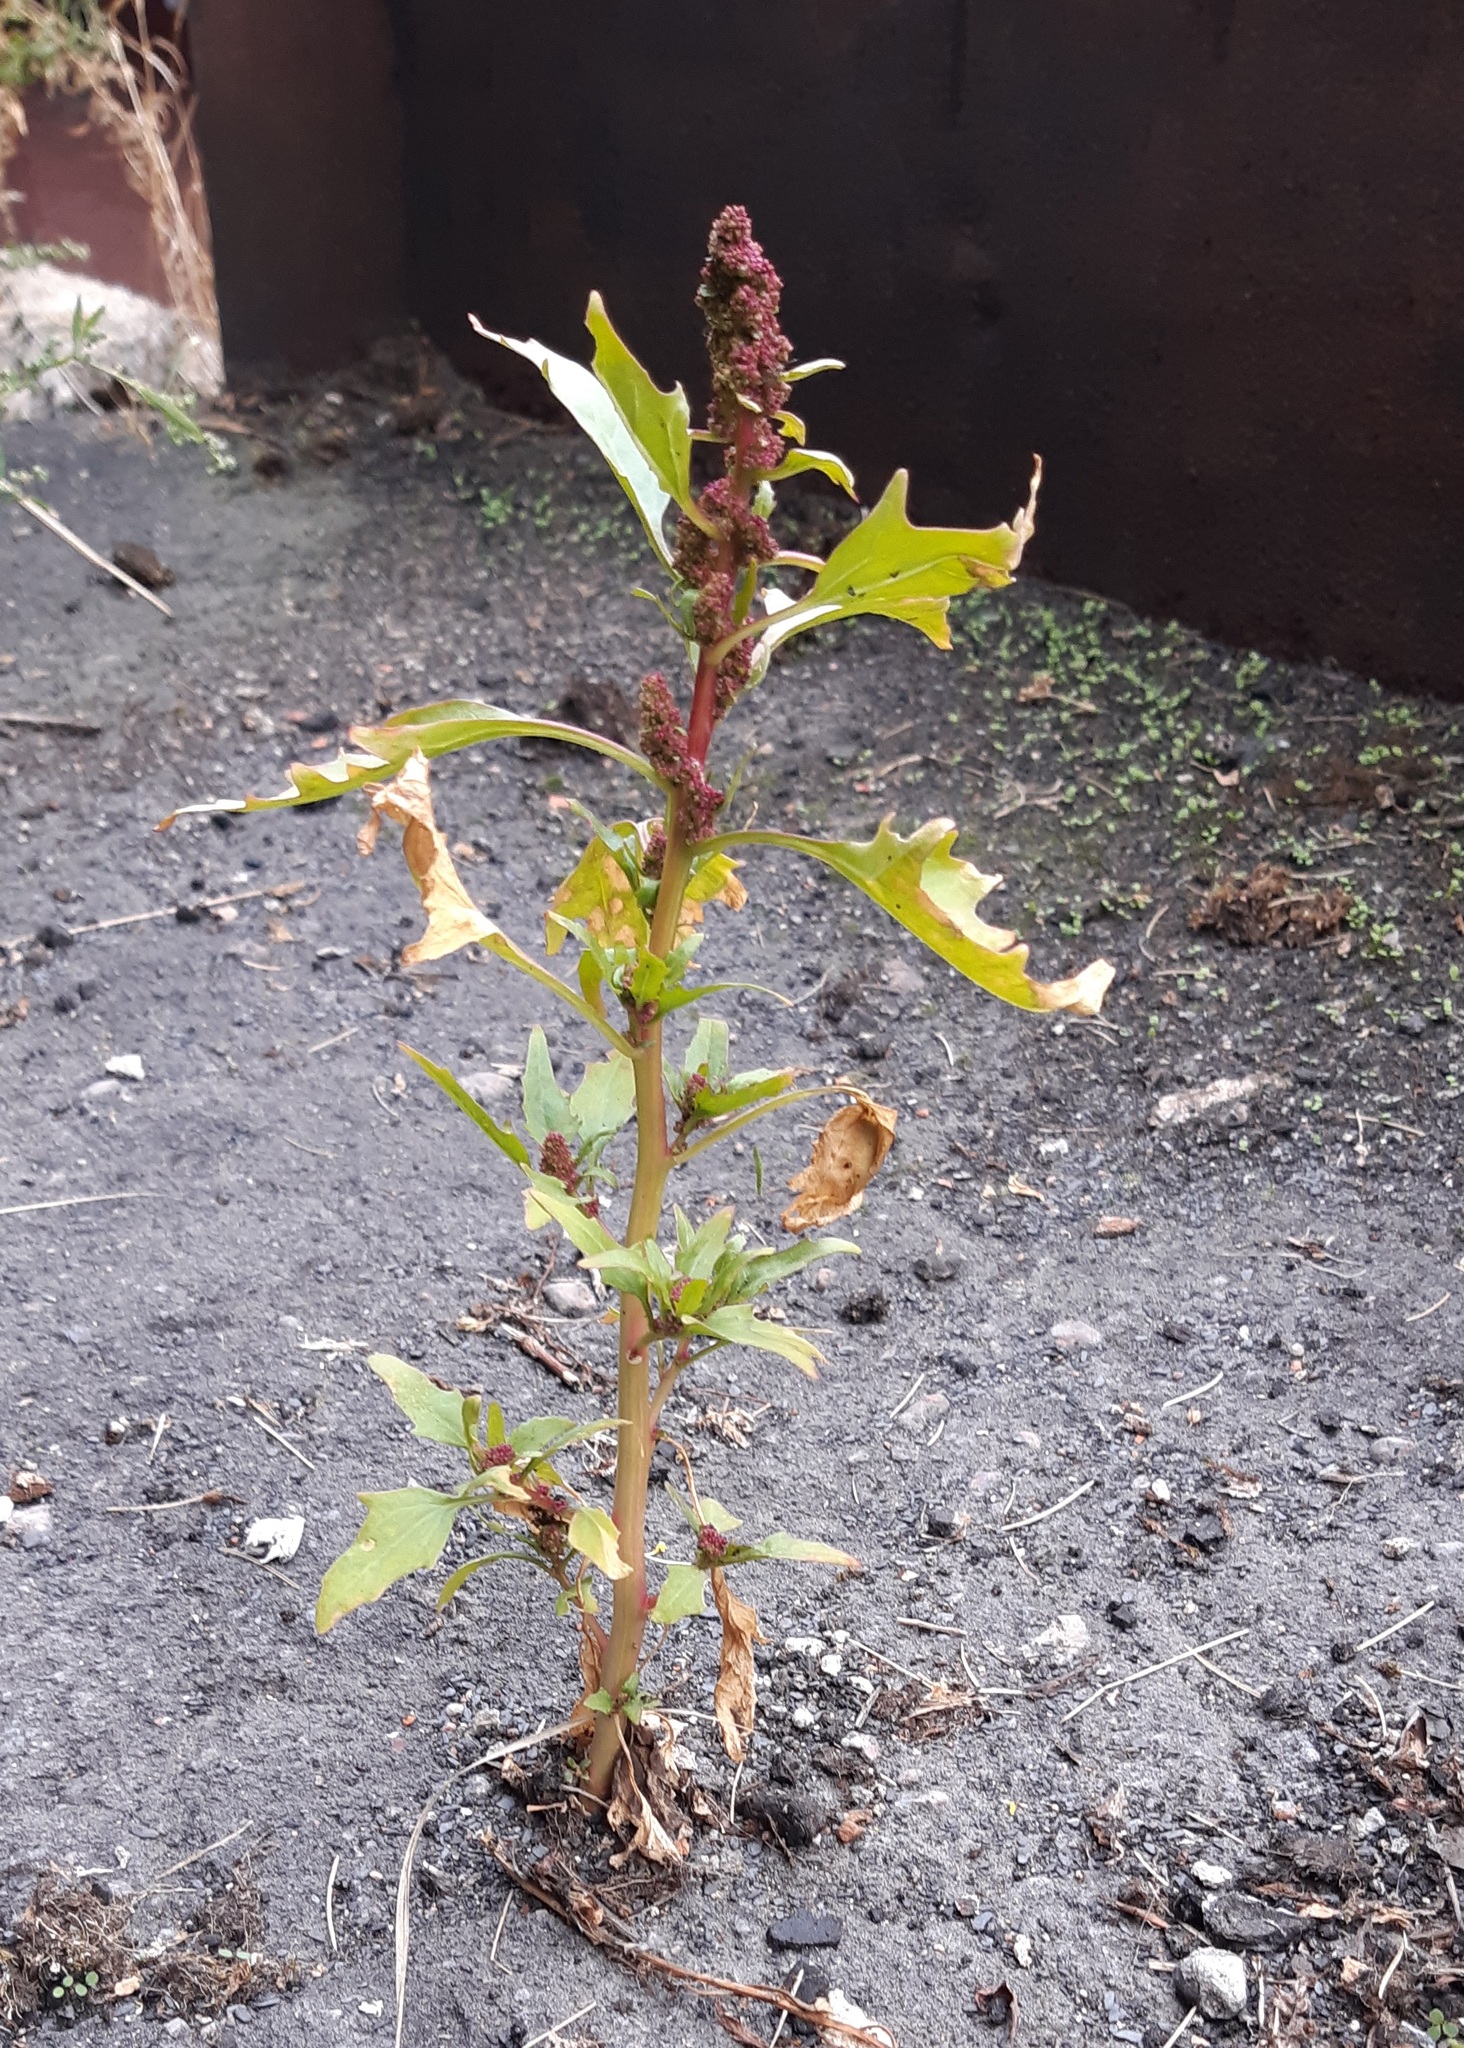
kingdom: Plantae
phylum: Tracheophyta
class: Magnoliopsida
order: Caryophyllales
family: Amaranthaceae
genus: Oxybasis
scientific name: Oxybasis rubra
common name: Red goosefoot
